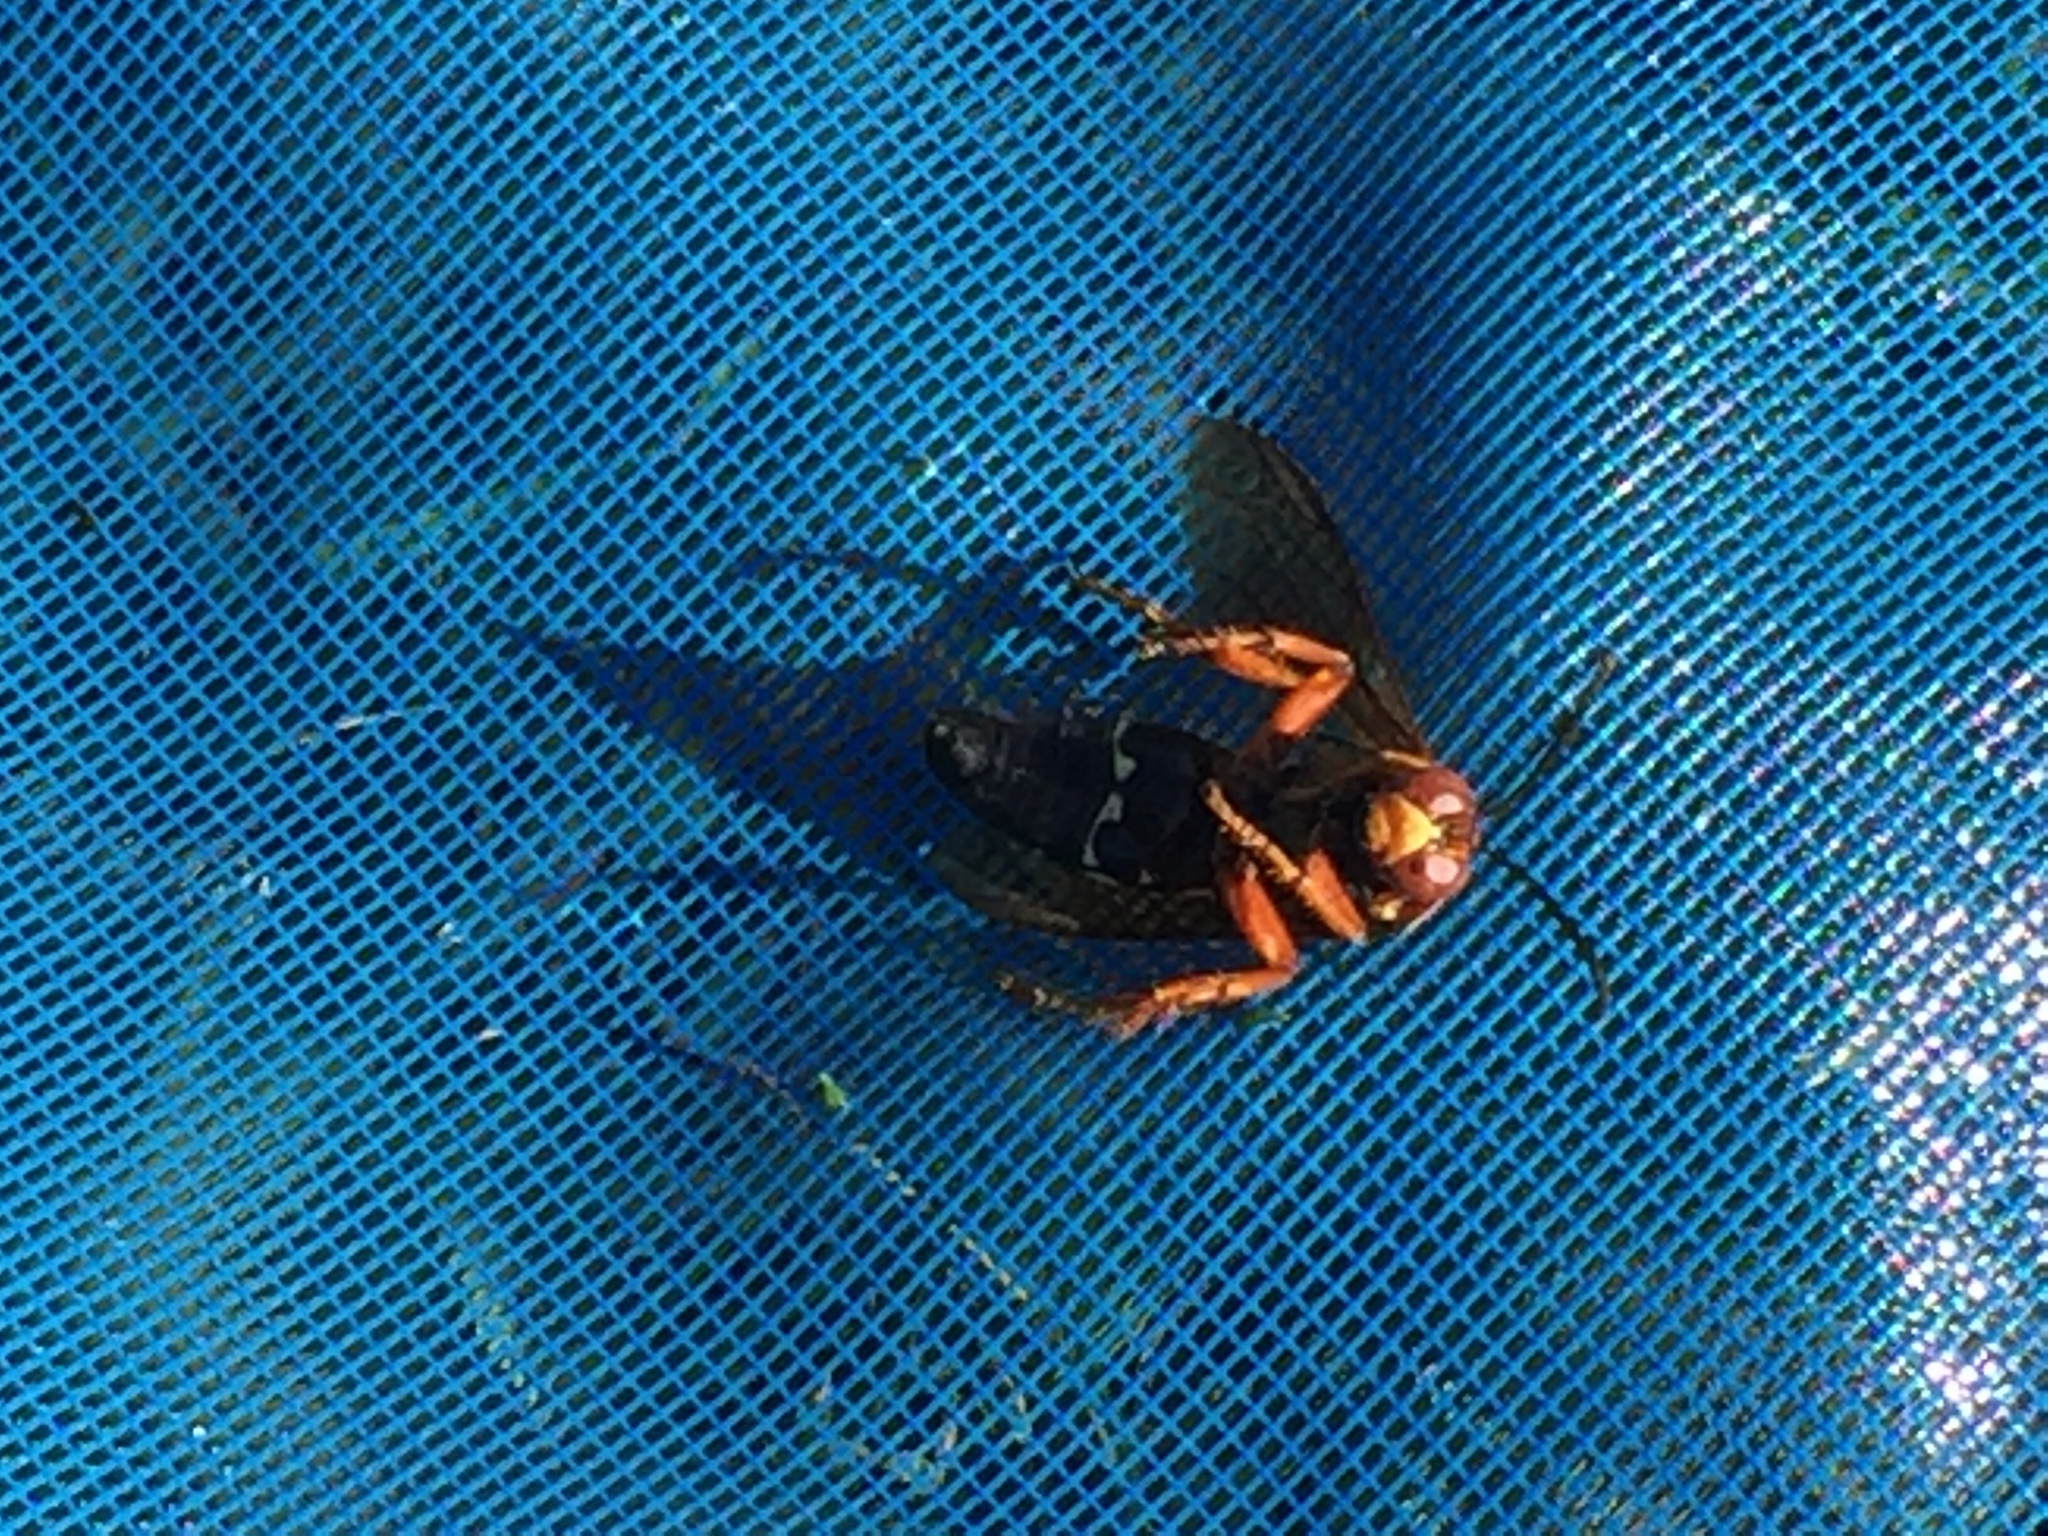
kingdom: Animalia
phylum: Arthropoda
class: Insecta
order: Hymenoptera
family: Crabronidae
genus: Sphecius
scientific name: Sphecius speciosus
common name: Cicada killer
